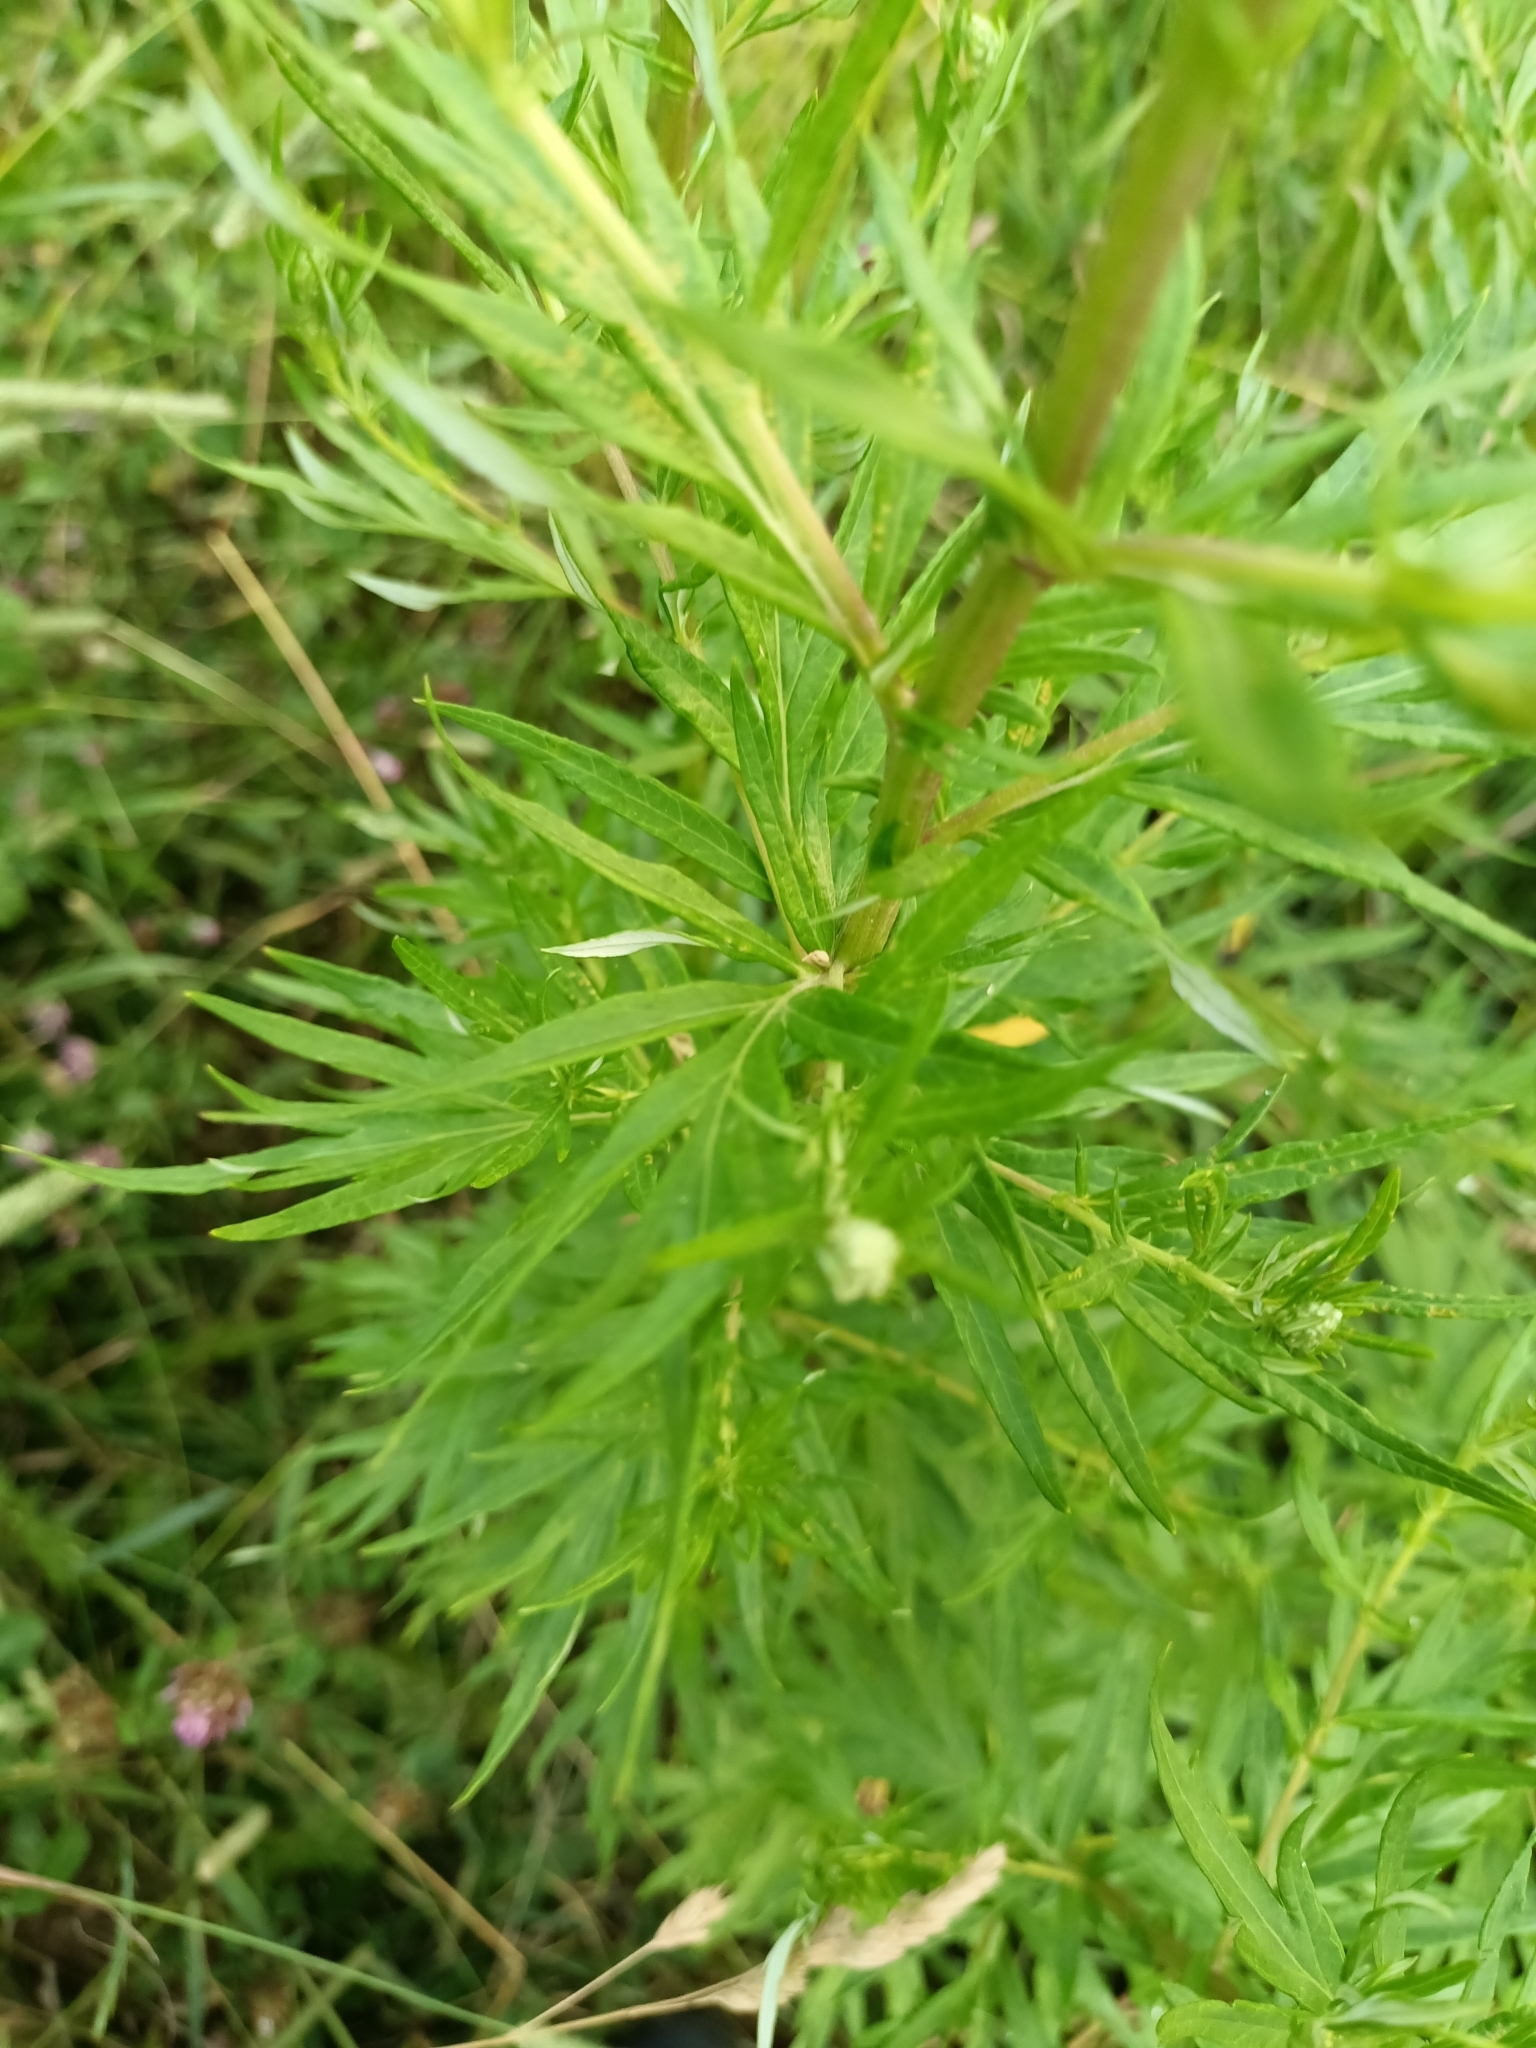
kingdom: Plantae
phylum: Tracheophyta
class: Magnoliopsida
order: Asterales
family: Asteraceae
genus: Artemisia
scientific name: Artemisia vulgaris
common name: Mugwort
